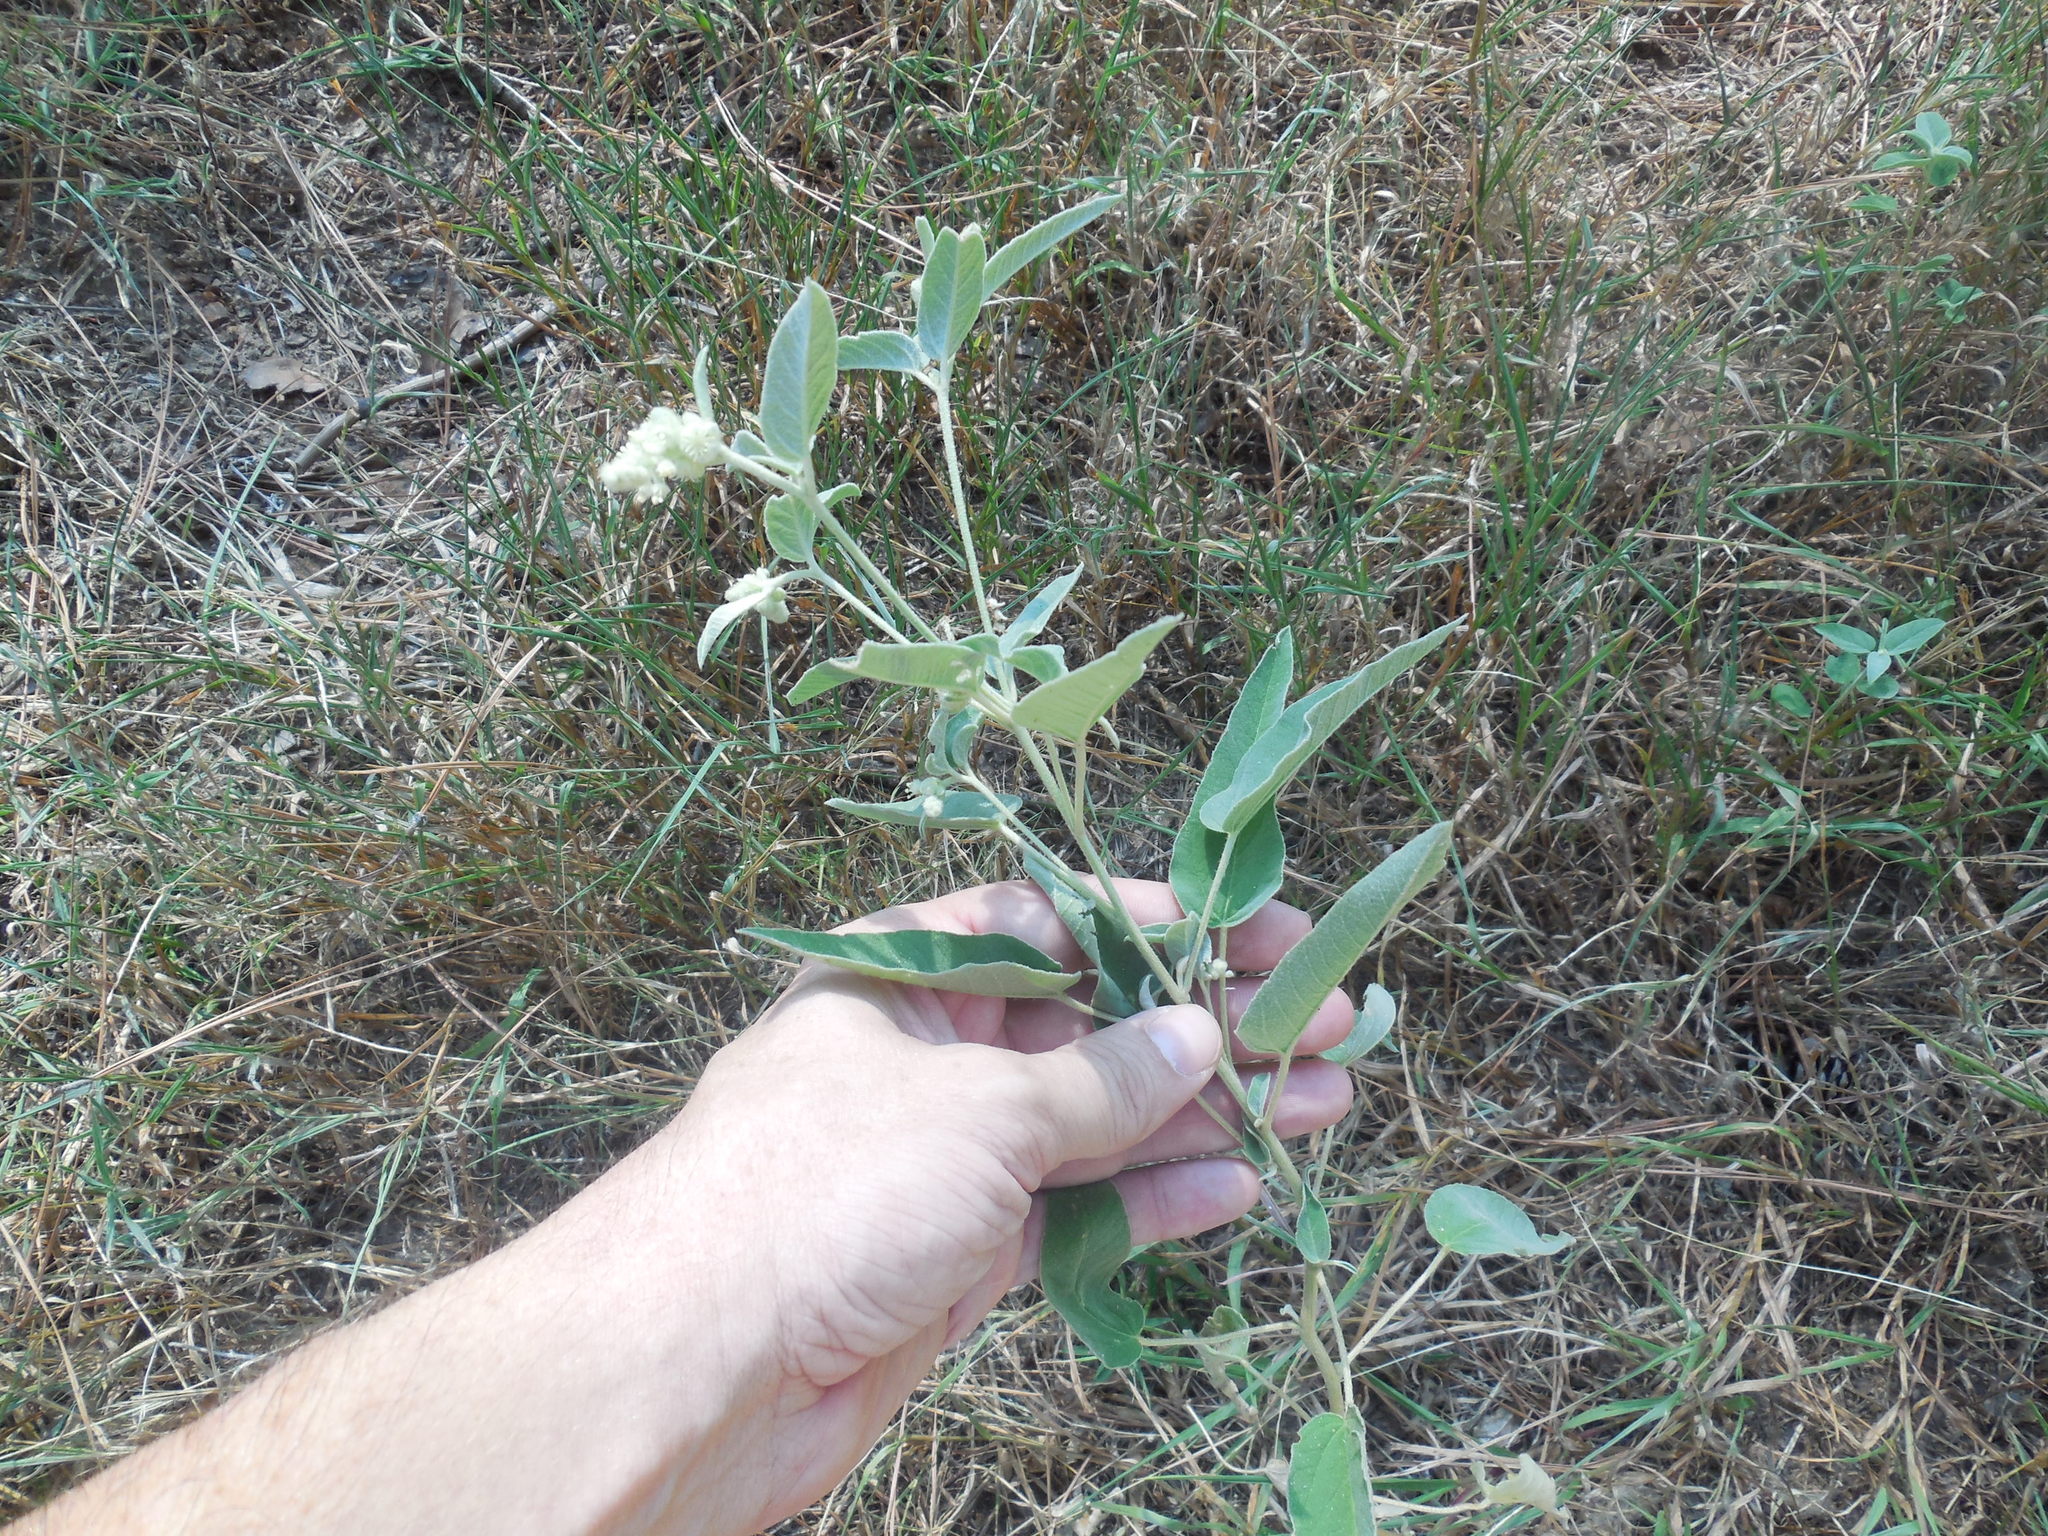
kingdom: Plantae
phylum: Tracheophyta
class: Magnoliopsida
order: Malpighiales
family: Euphorbiaceae
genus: Croton
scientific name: Croton lindheimeri
